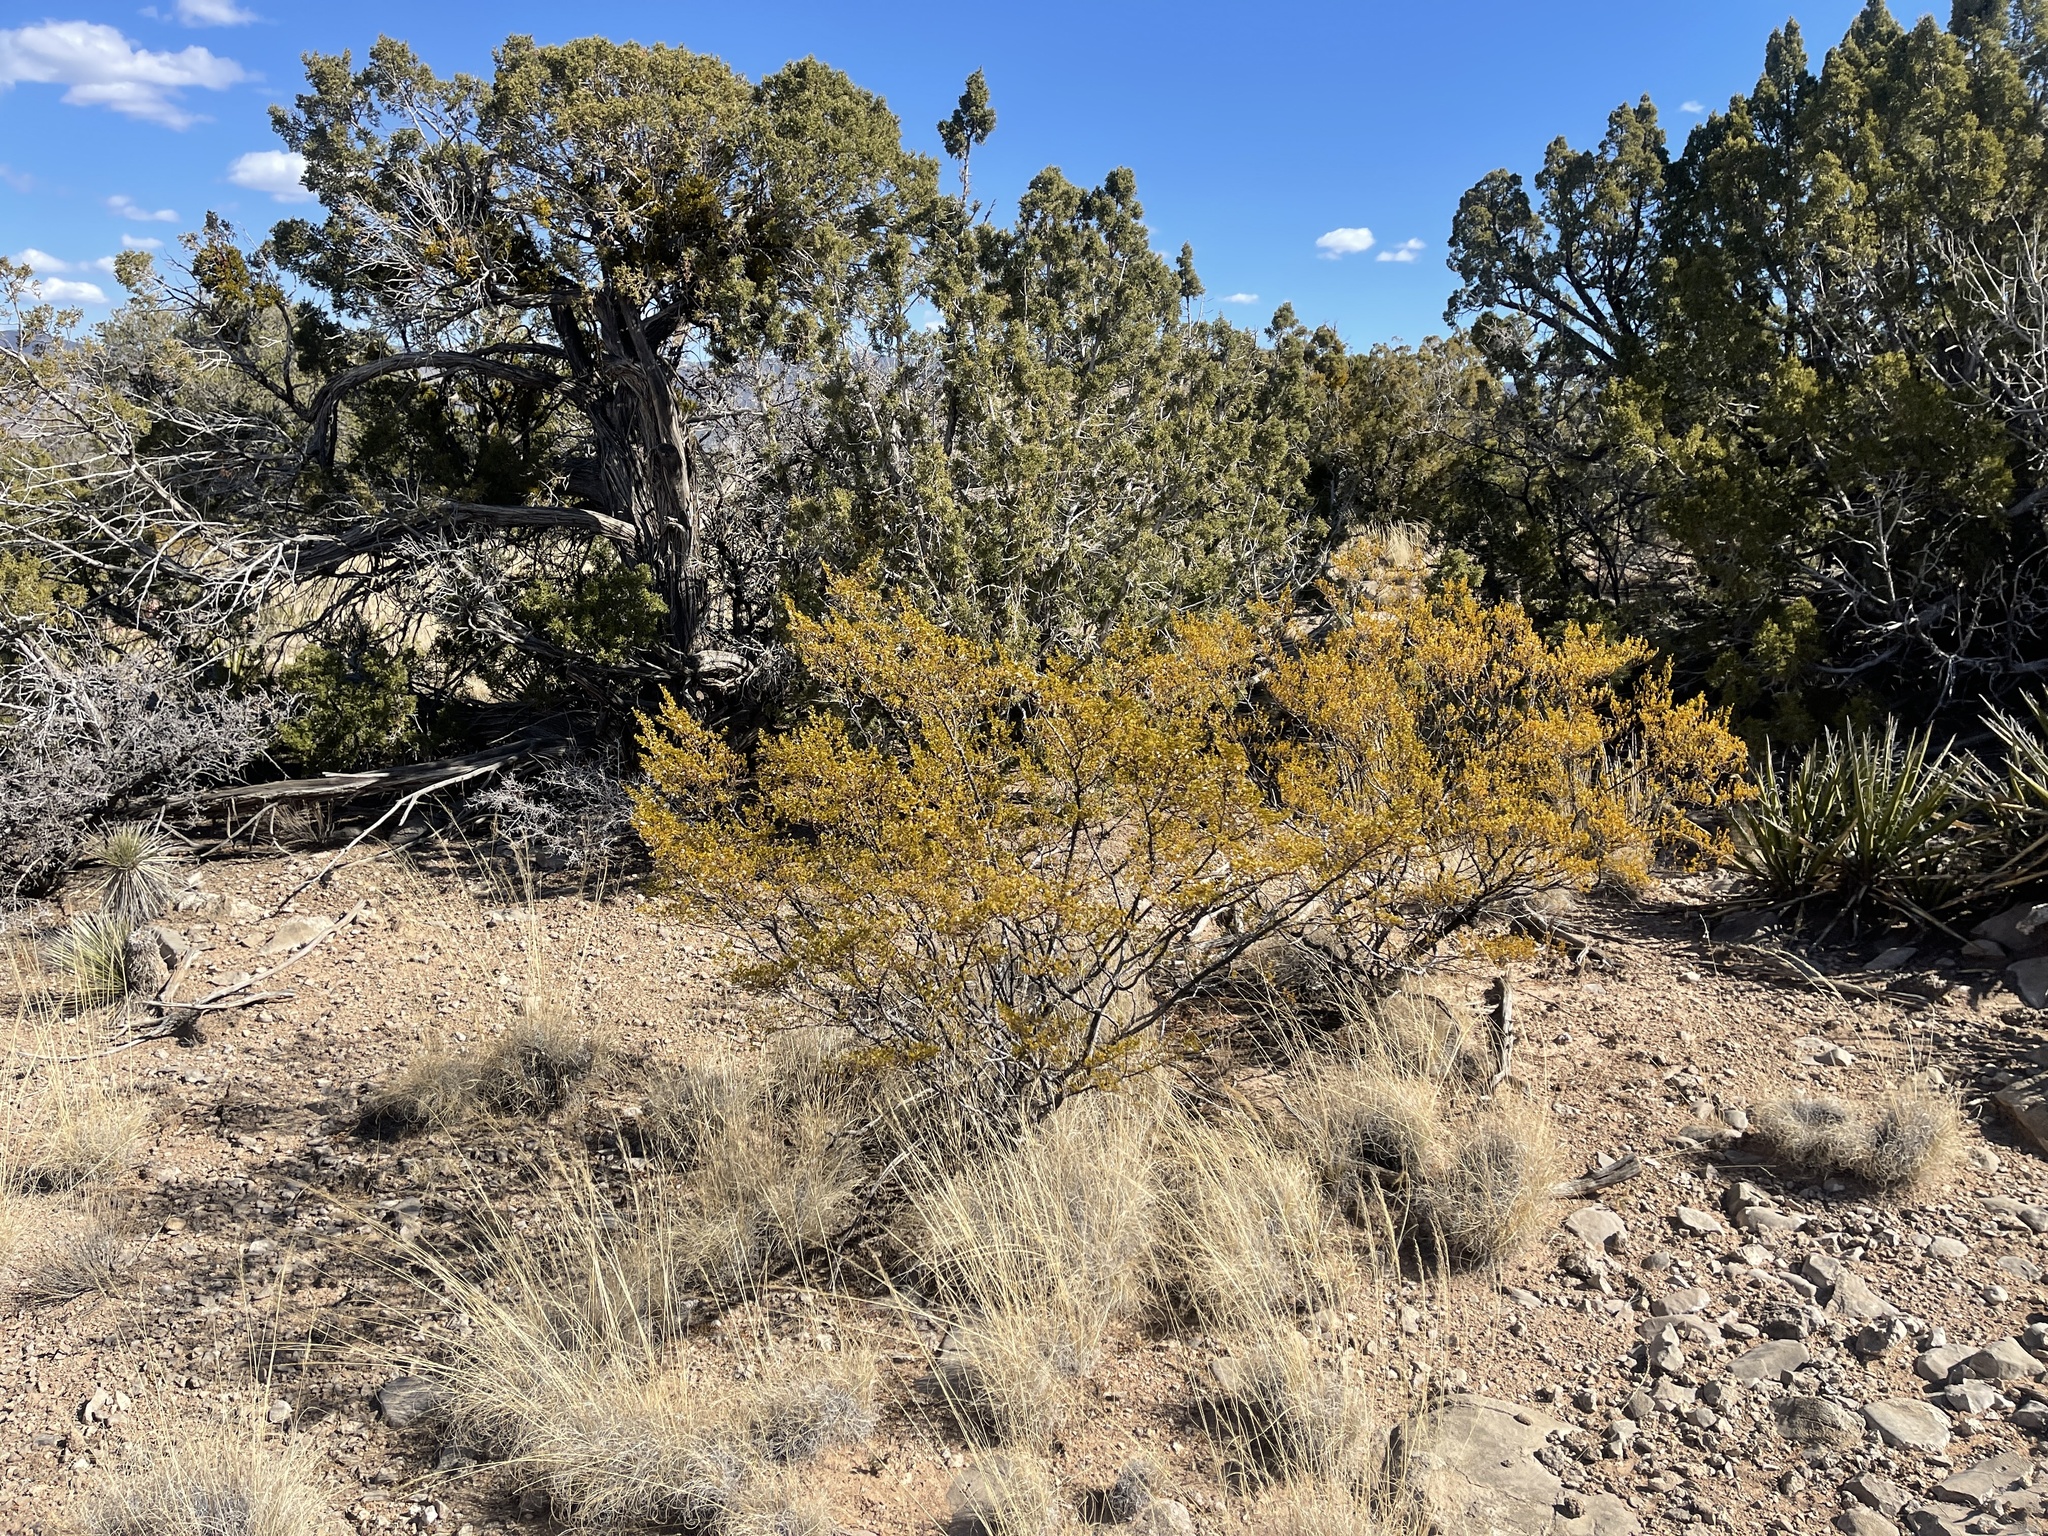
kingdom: Plantae
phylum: Tracheophyta
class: Magnoliopsida
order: Zygophyllales
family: Zygophyllaceae
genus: Larrea
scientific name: Larrea tridentata
